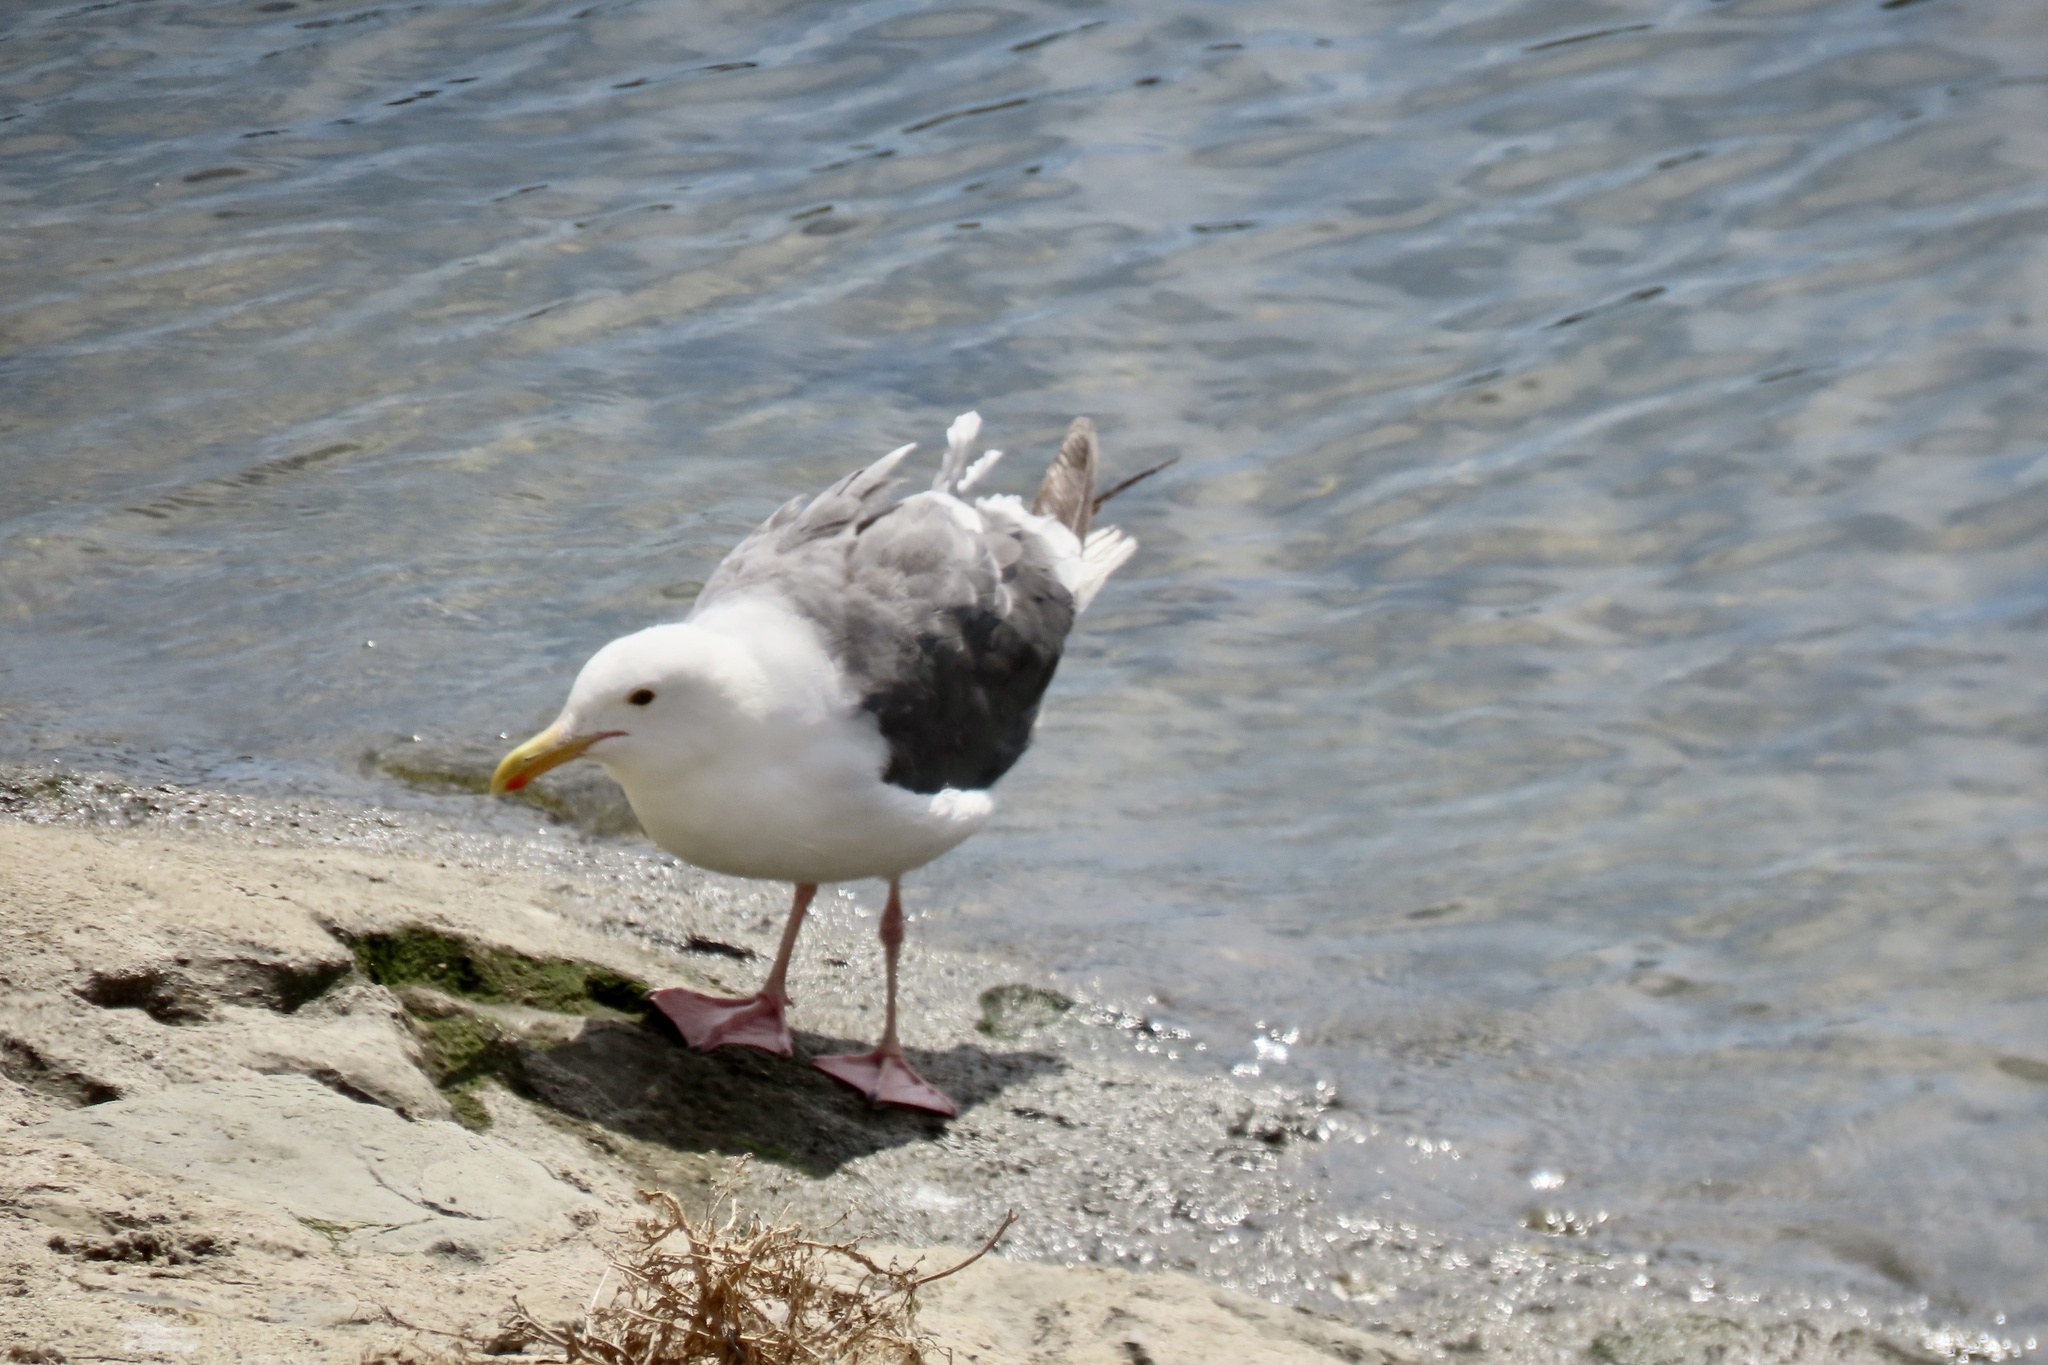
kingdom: Animalia
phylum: Chordata
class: Aves
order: Charadriiformes
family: Laridae
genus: Larus
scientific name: Larus occidentalis
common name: Western gull
